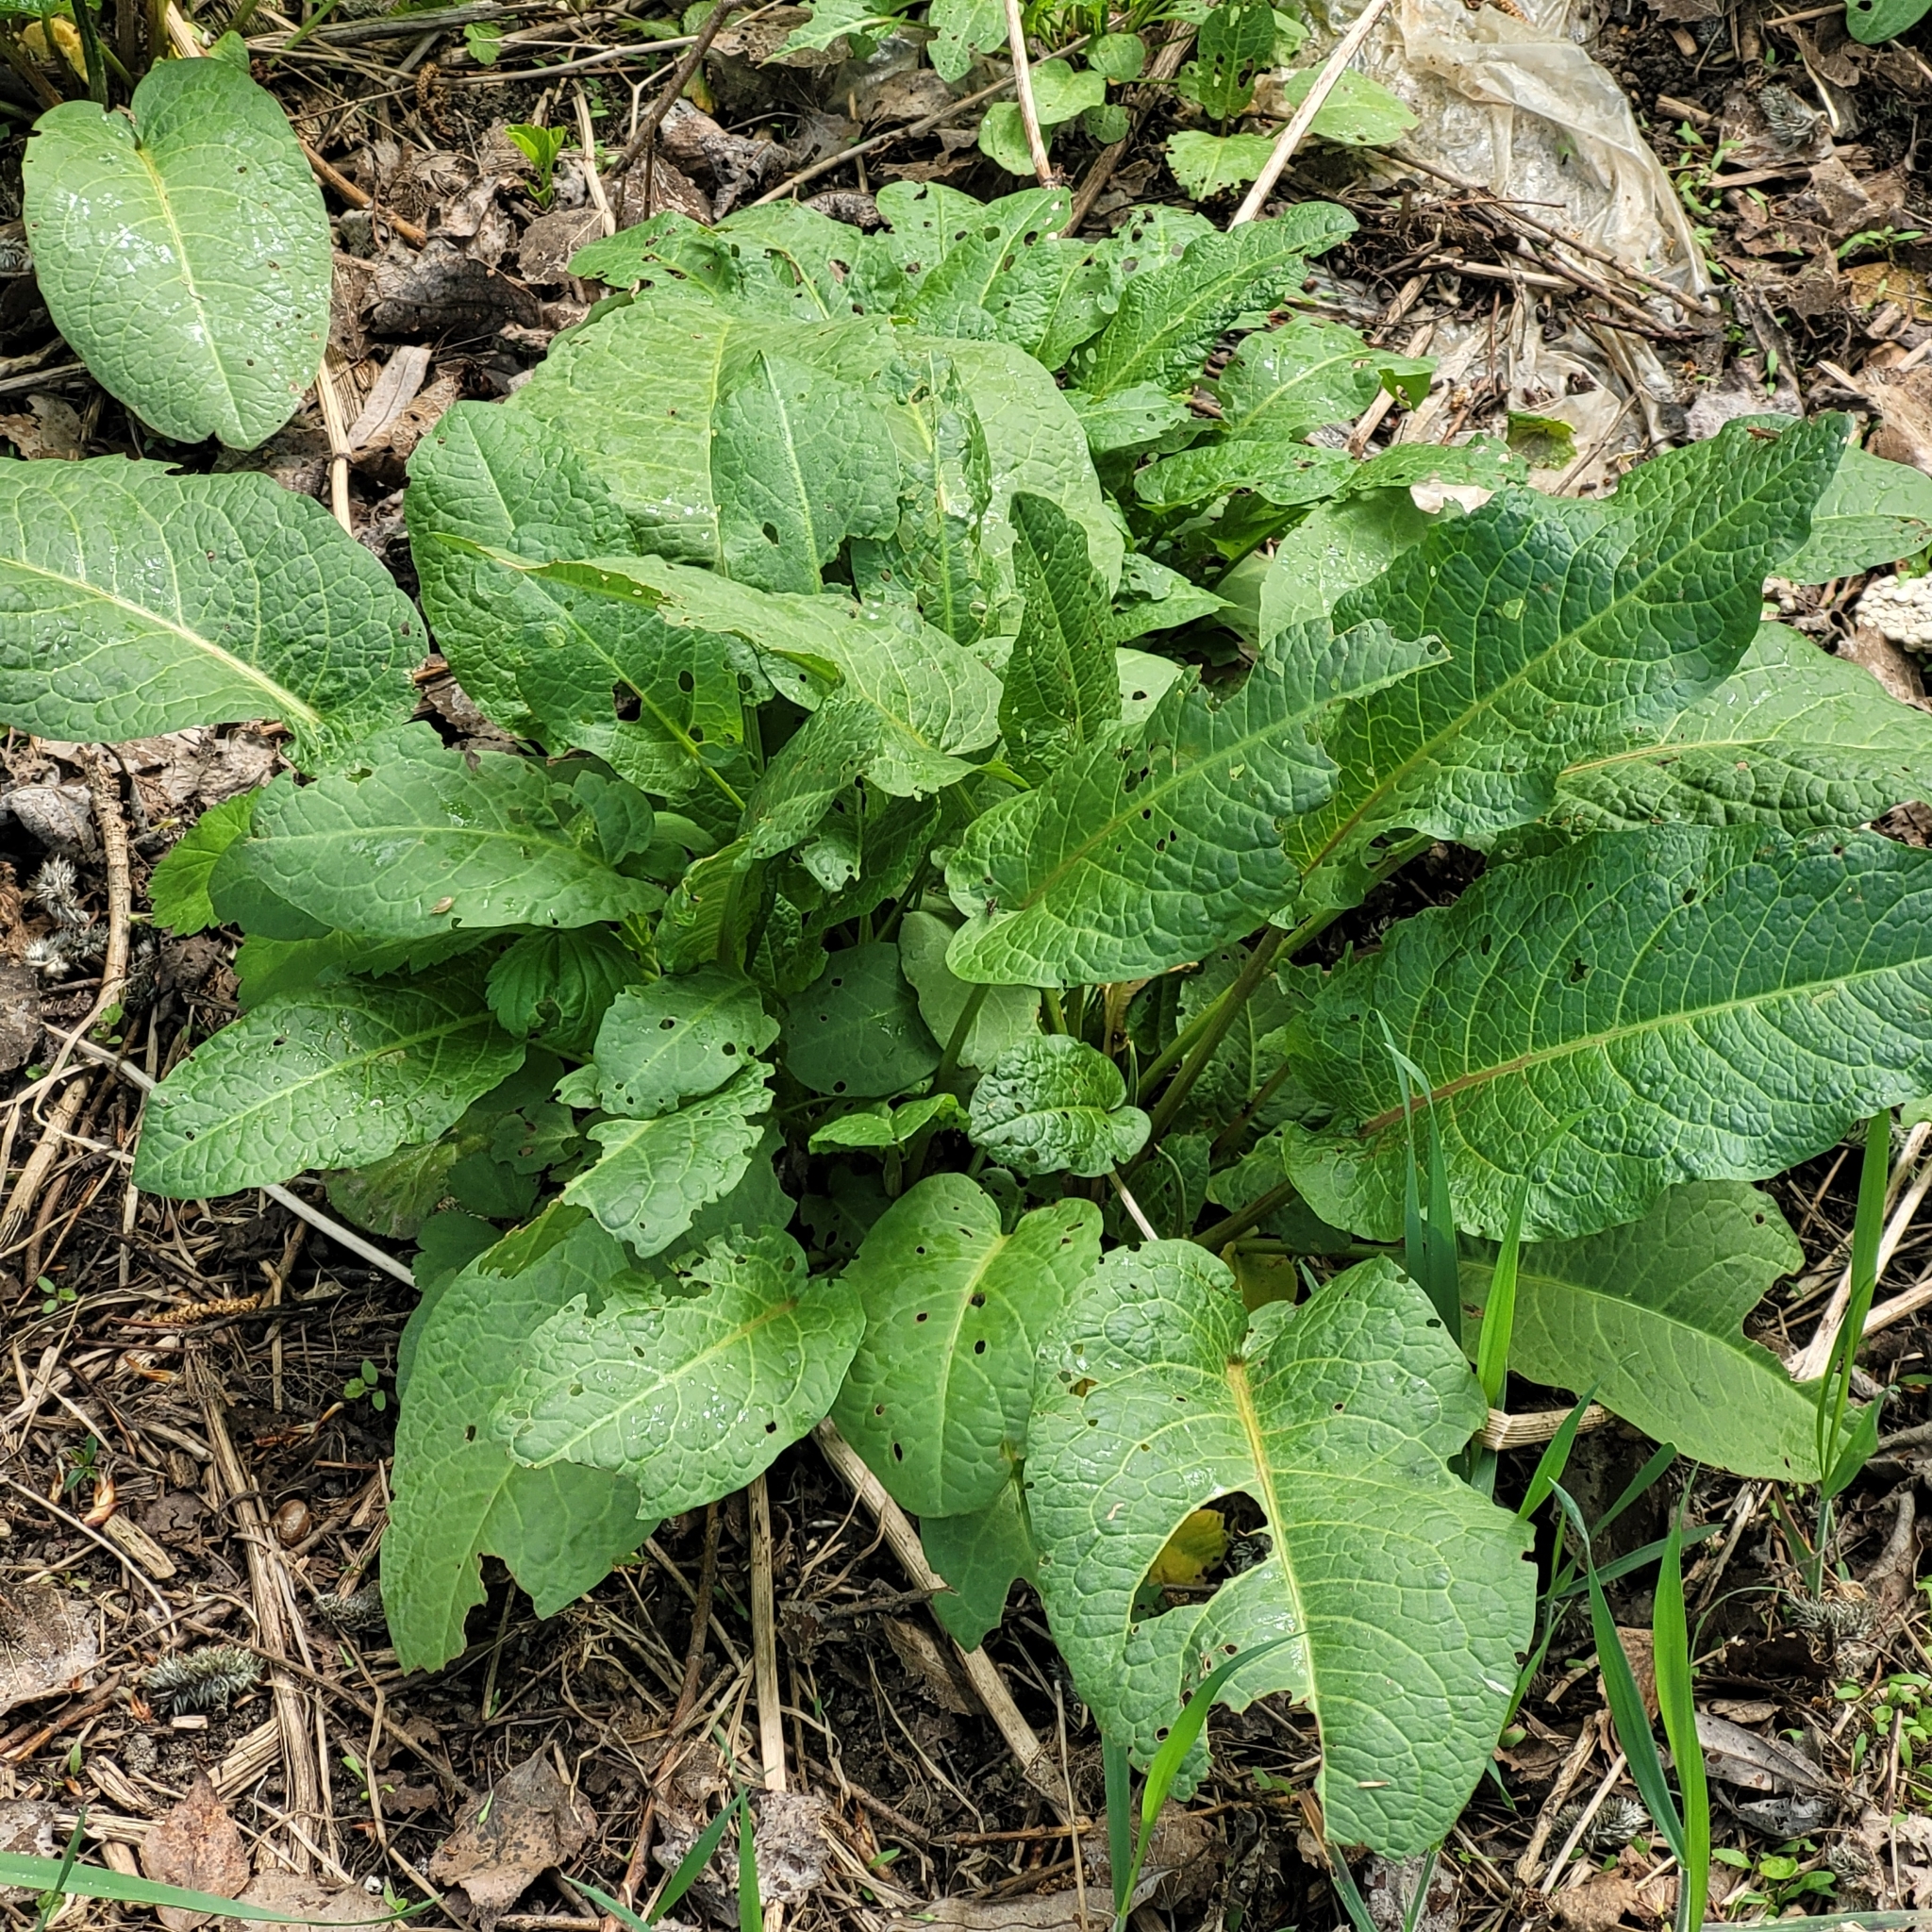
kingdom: Plantae
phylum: Tracheophyta
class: Magnoliopsida
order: Caryophyllales
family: Polygonaceae
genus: Rumex
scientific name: Rumex obtusifolius
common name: Bitter dock
